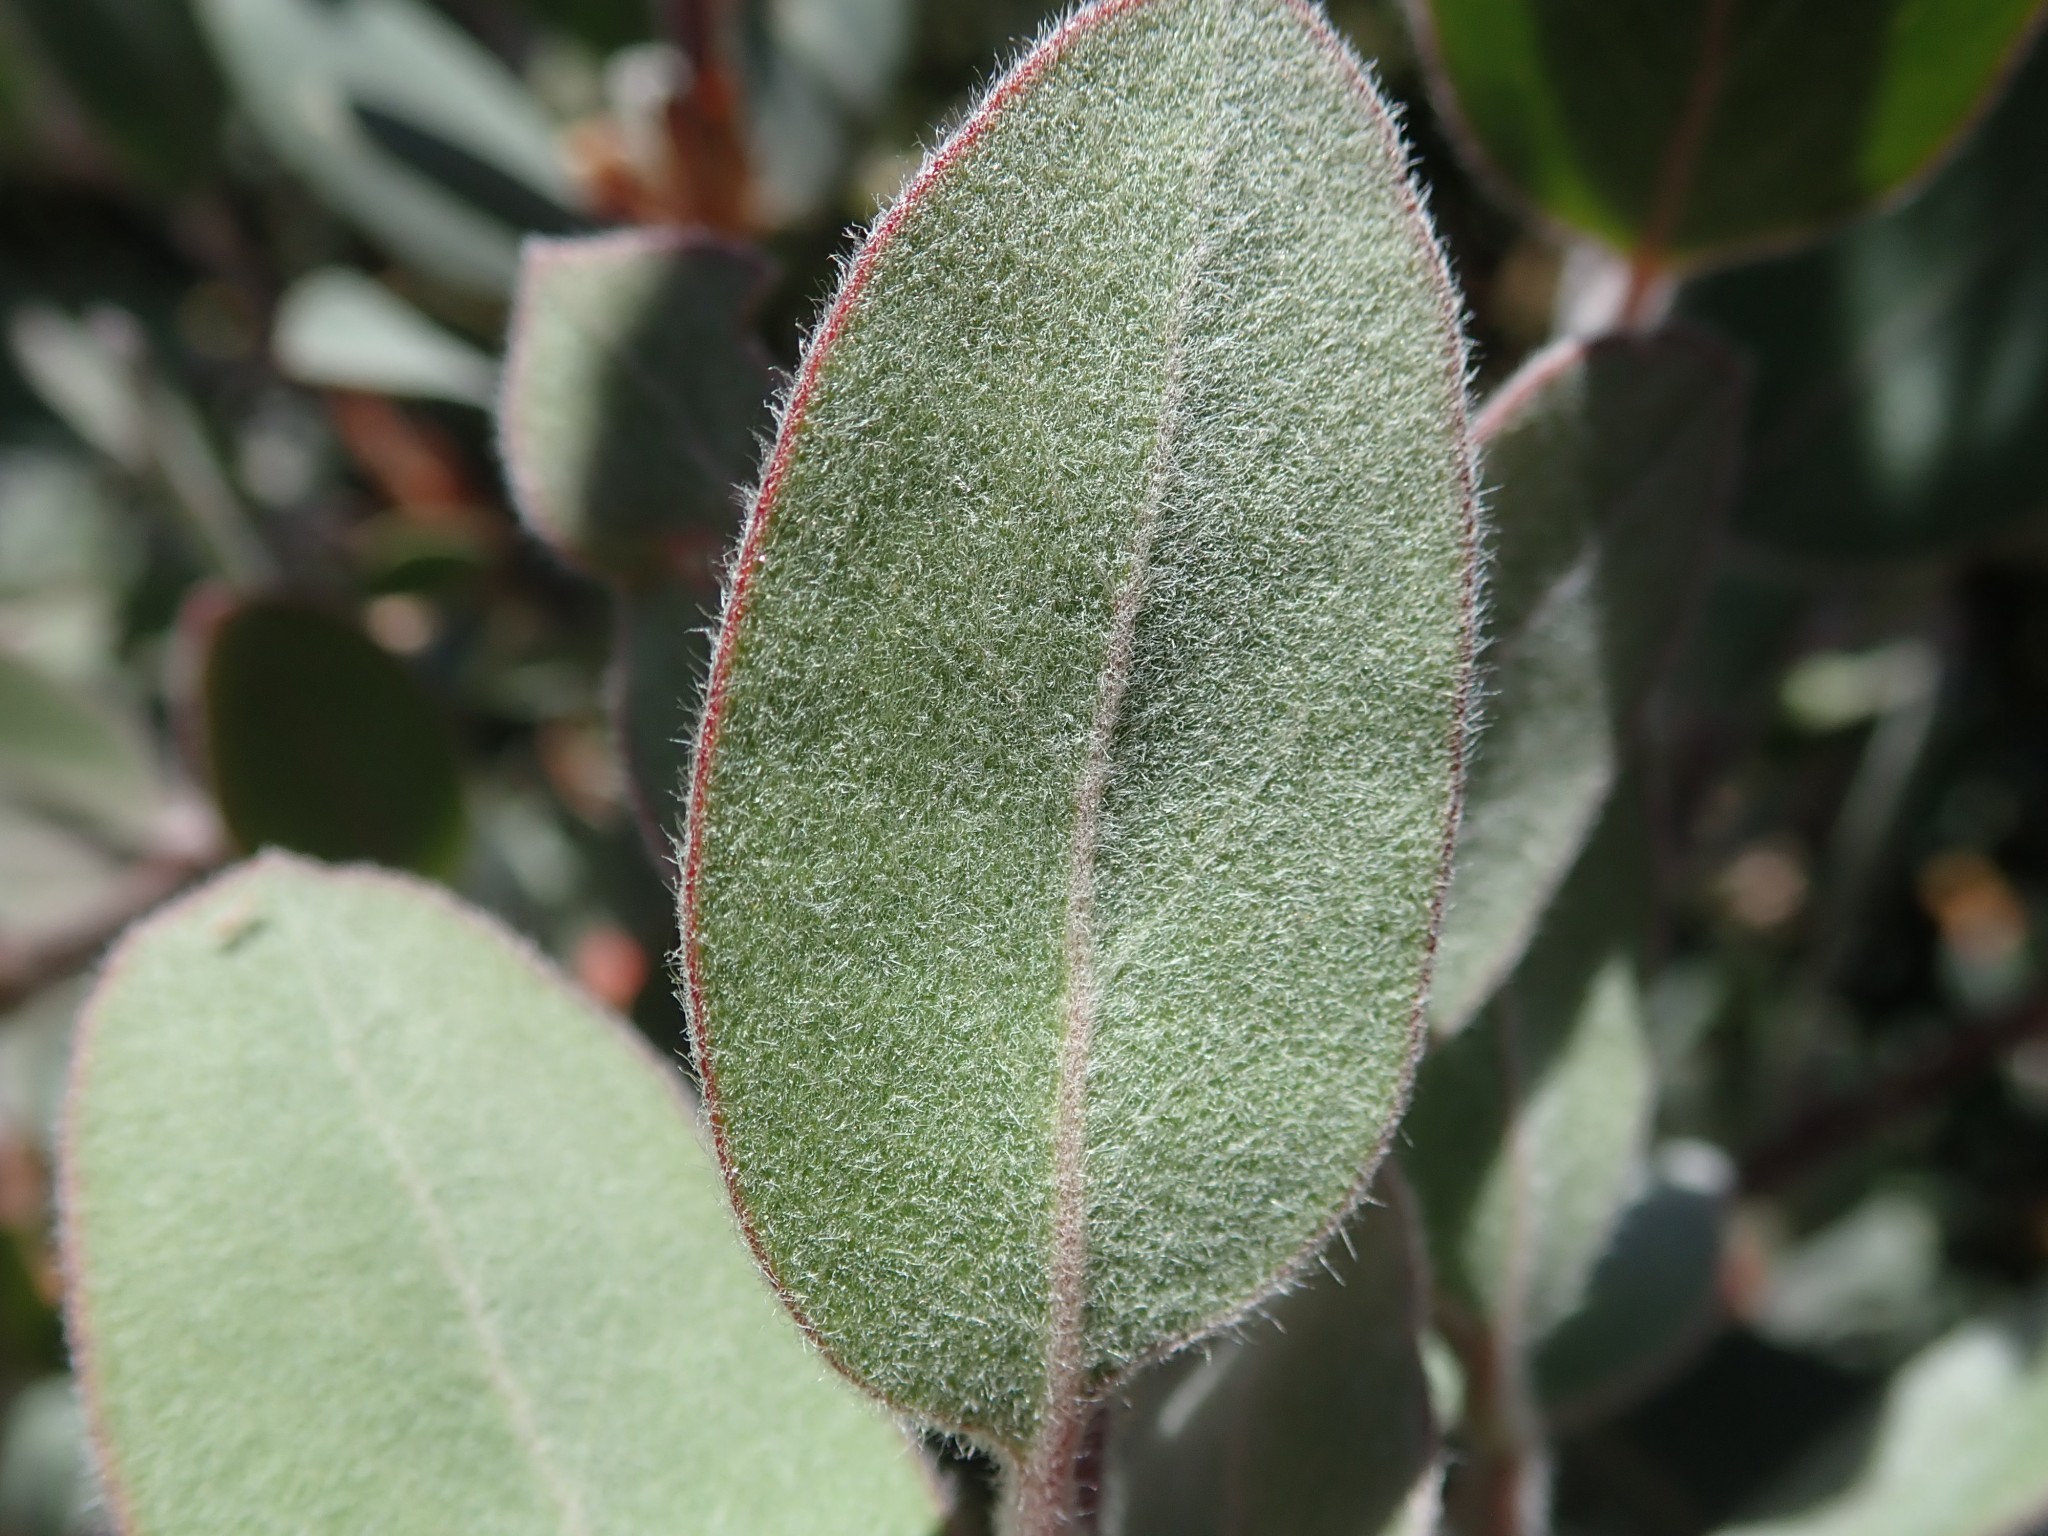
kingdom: Plantae
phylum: Tracheophyta
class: Magnoliopsida
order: Ericales
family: Ericaceae
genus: Arctostaphylos
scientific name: Arctostaphylos silvicola
